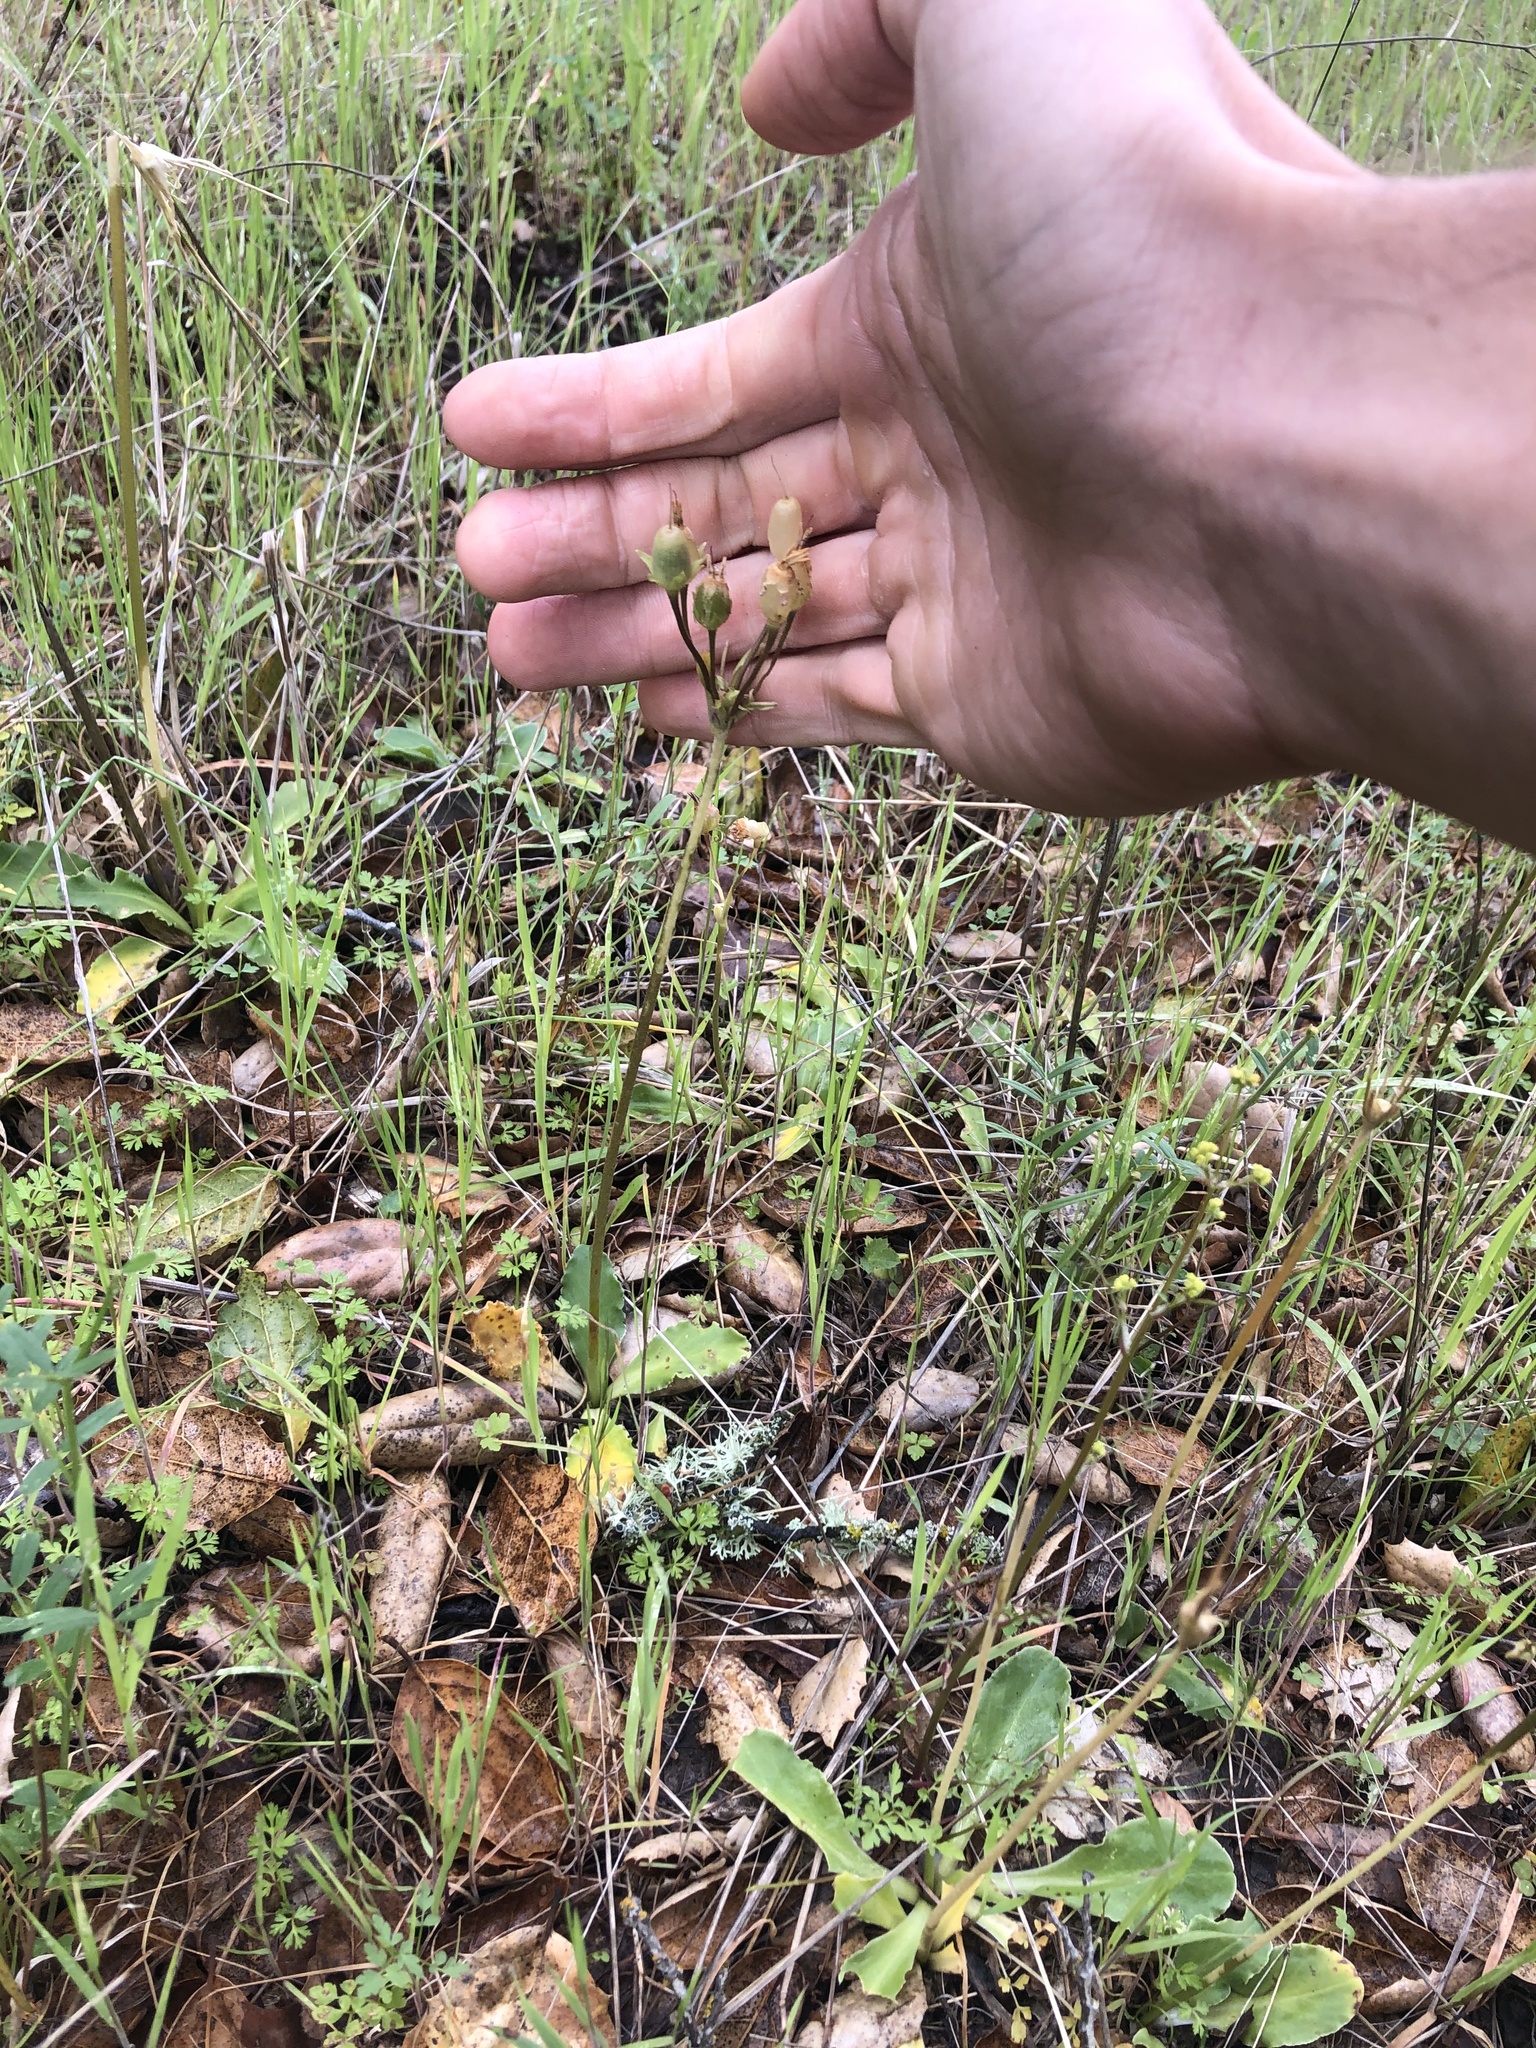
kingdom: Plantae
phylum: Tracheophyta
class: Magnoliopsida
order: Ericales
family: Primulaceae
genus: Dodecatheon
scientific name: Dodecatheon clevelandii
